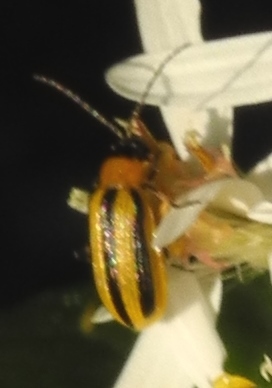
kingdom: Animalia
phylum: Arthropoda
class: Insecta
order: Coleoptera
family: Chrysomelidae
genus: Acalymma
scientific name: Acalymma vittatum
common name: Striped cucumber beetle
